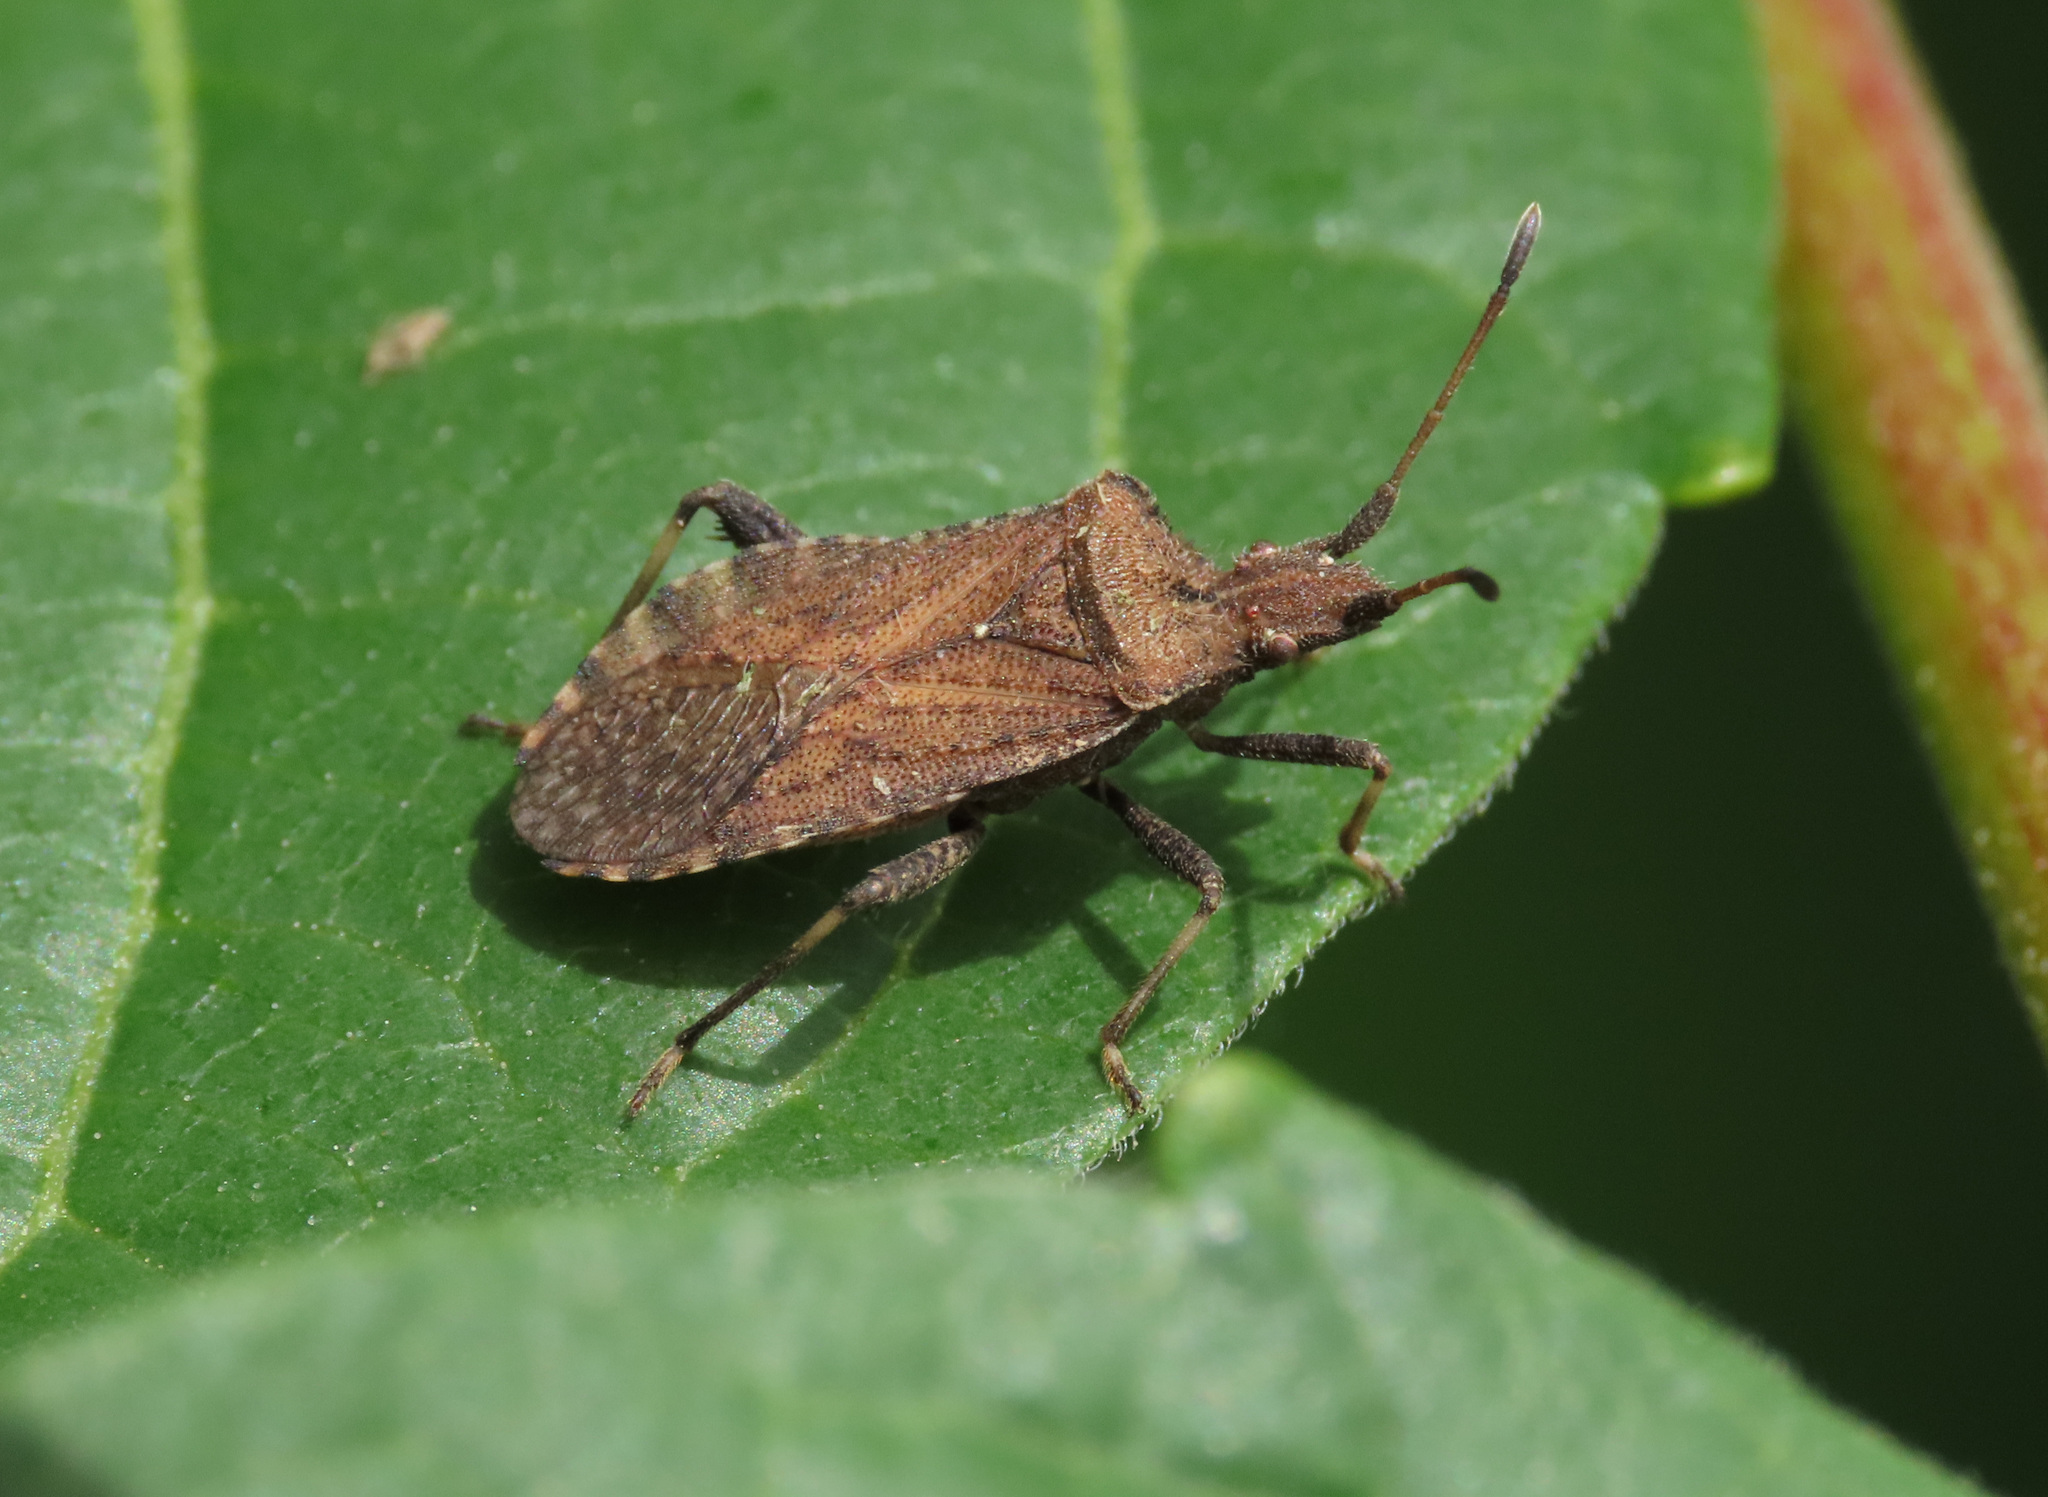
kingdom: Animalia
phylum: Arthropoda
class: Insecta
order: Hemiptera
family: Coreidae
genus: Anoplocerus
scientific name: Anoplocerus luteus
